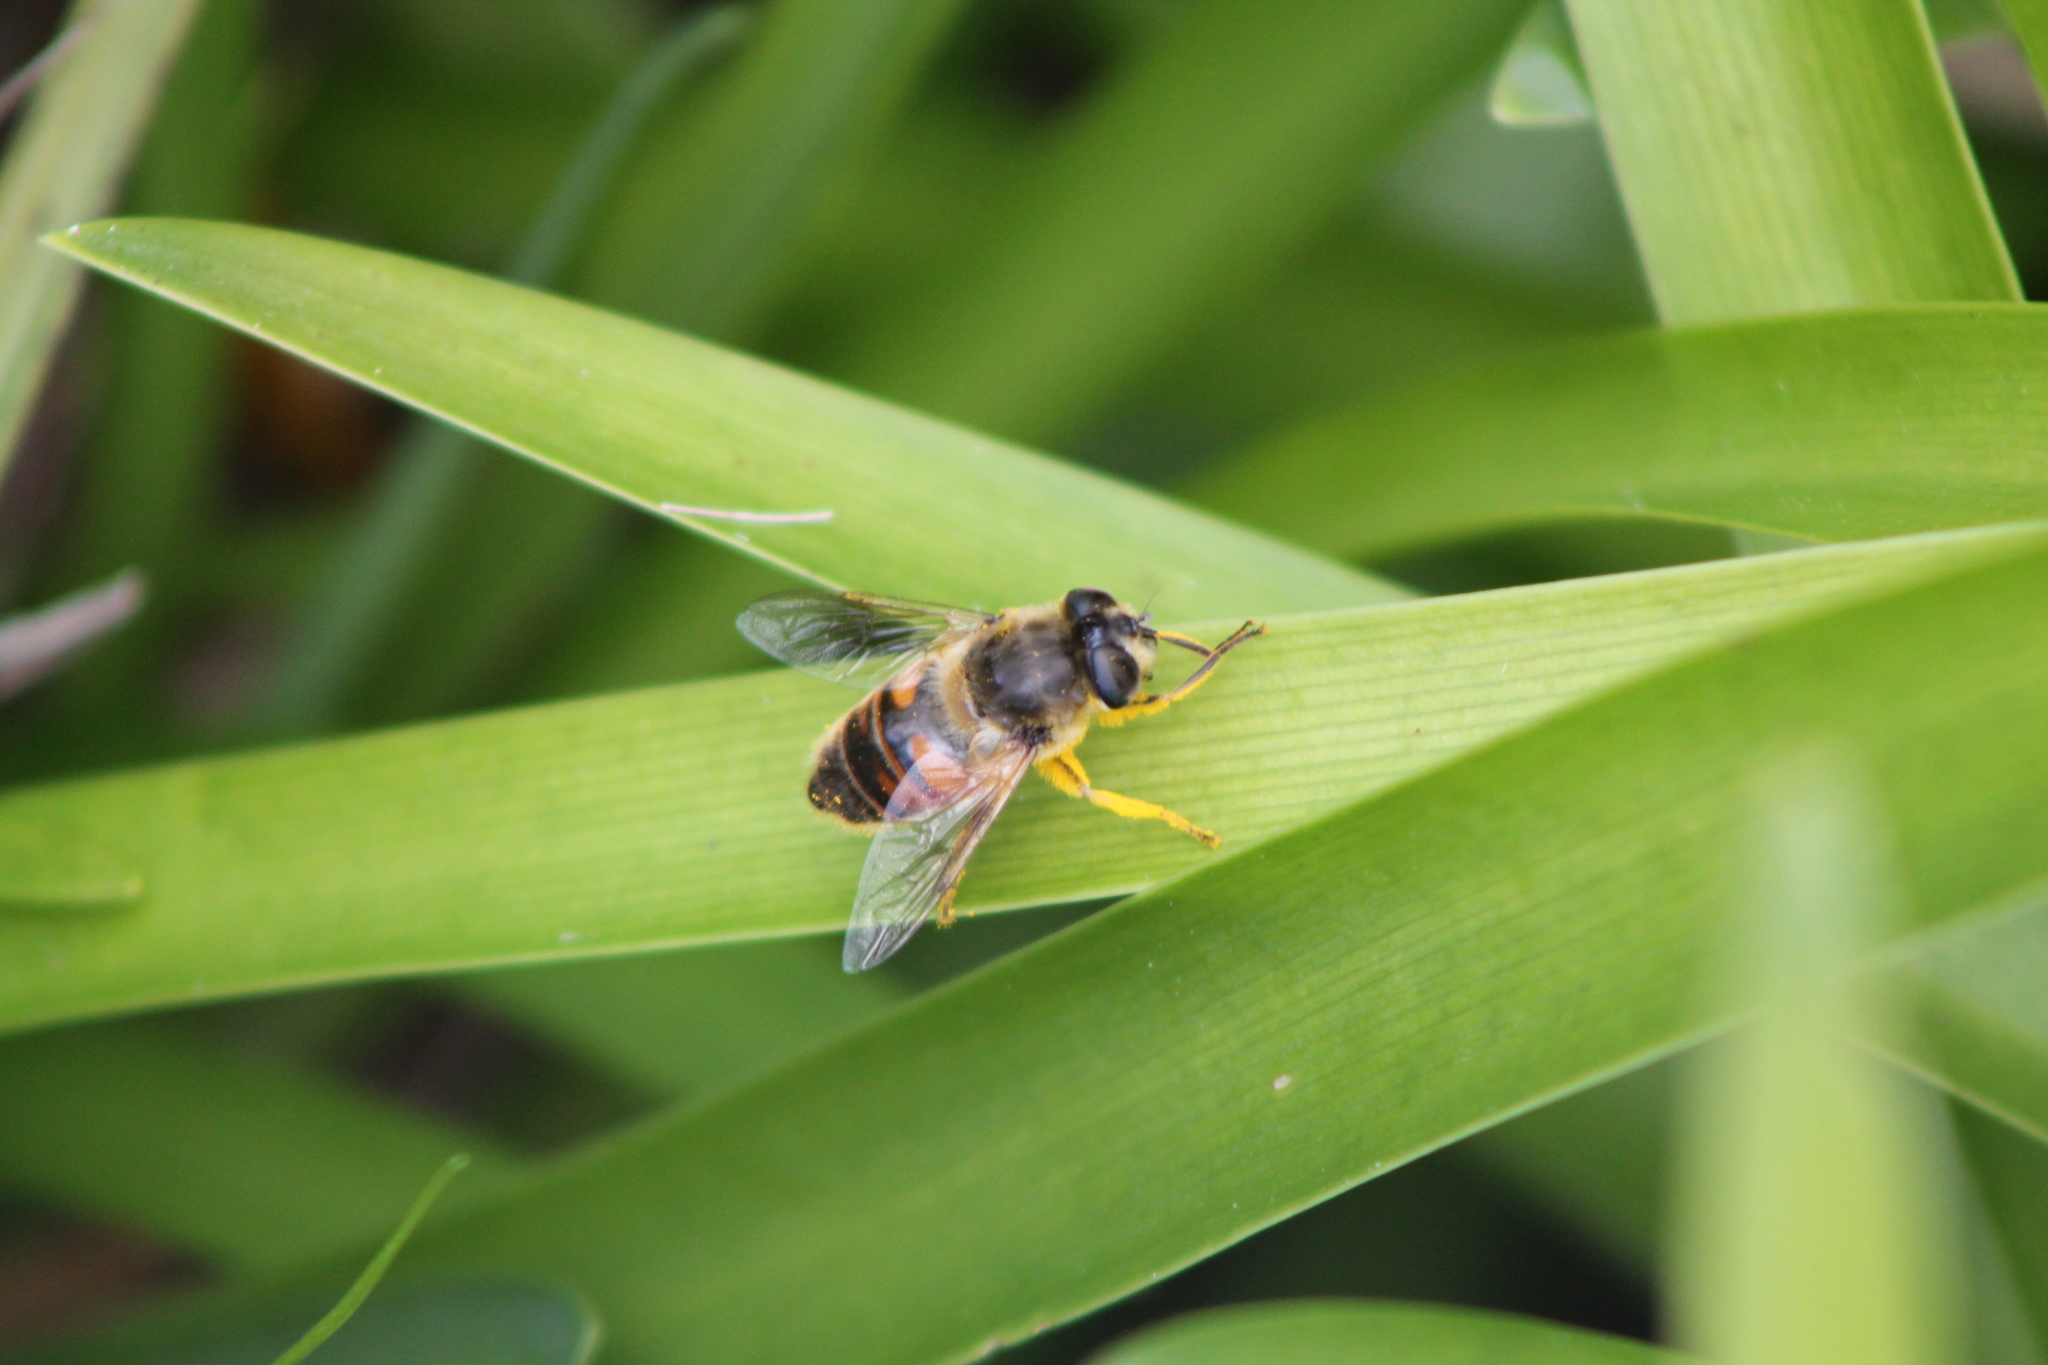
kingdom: Animalia
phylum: Arthropoda
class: Insecta
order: Diptera
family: Syrphidae
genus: Eristalis
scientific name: Eristalis tenax
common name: Drone fly
